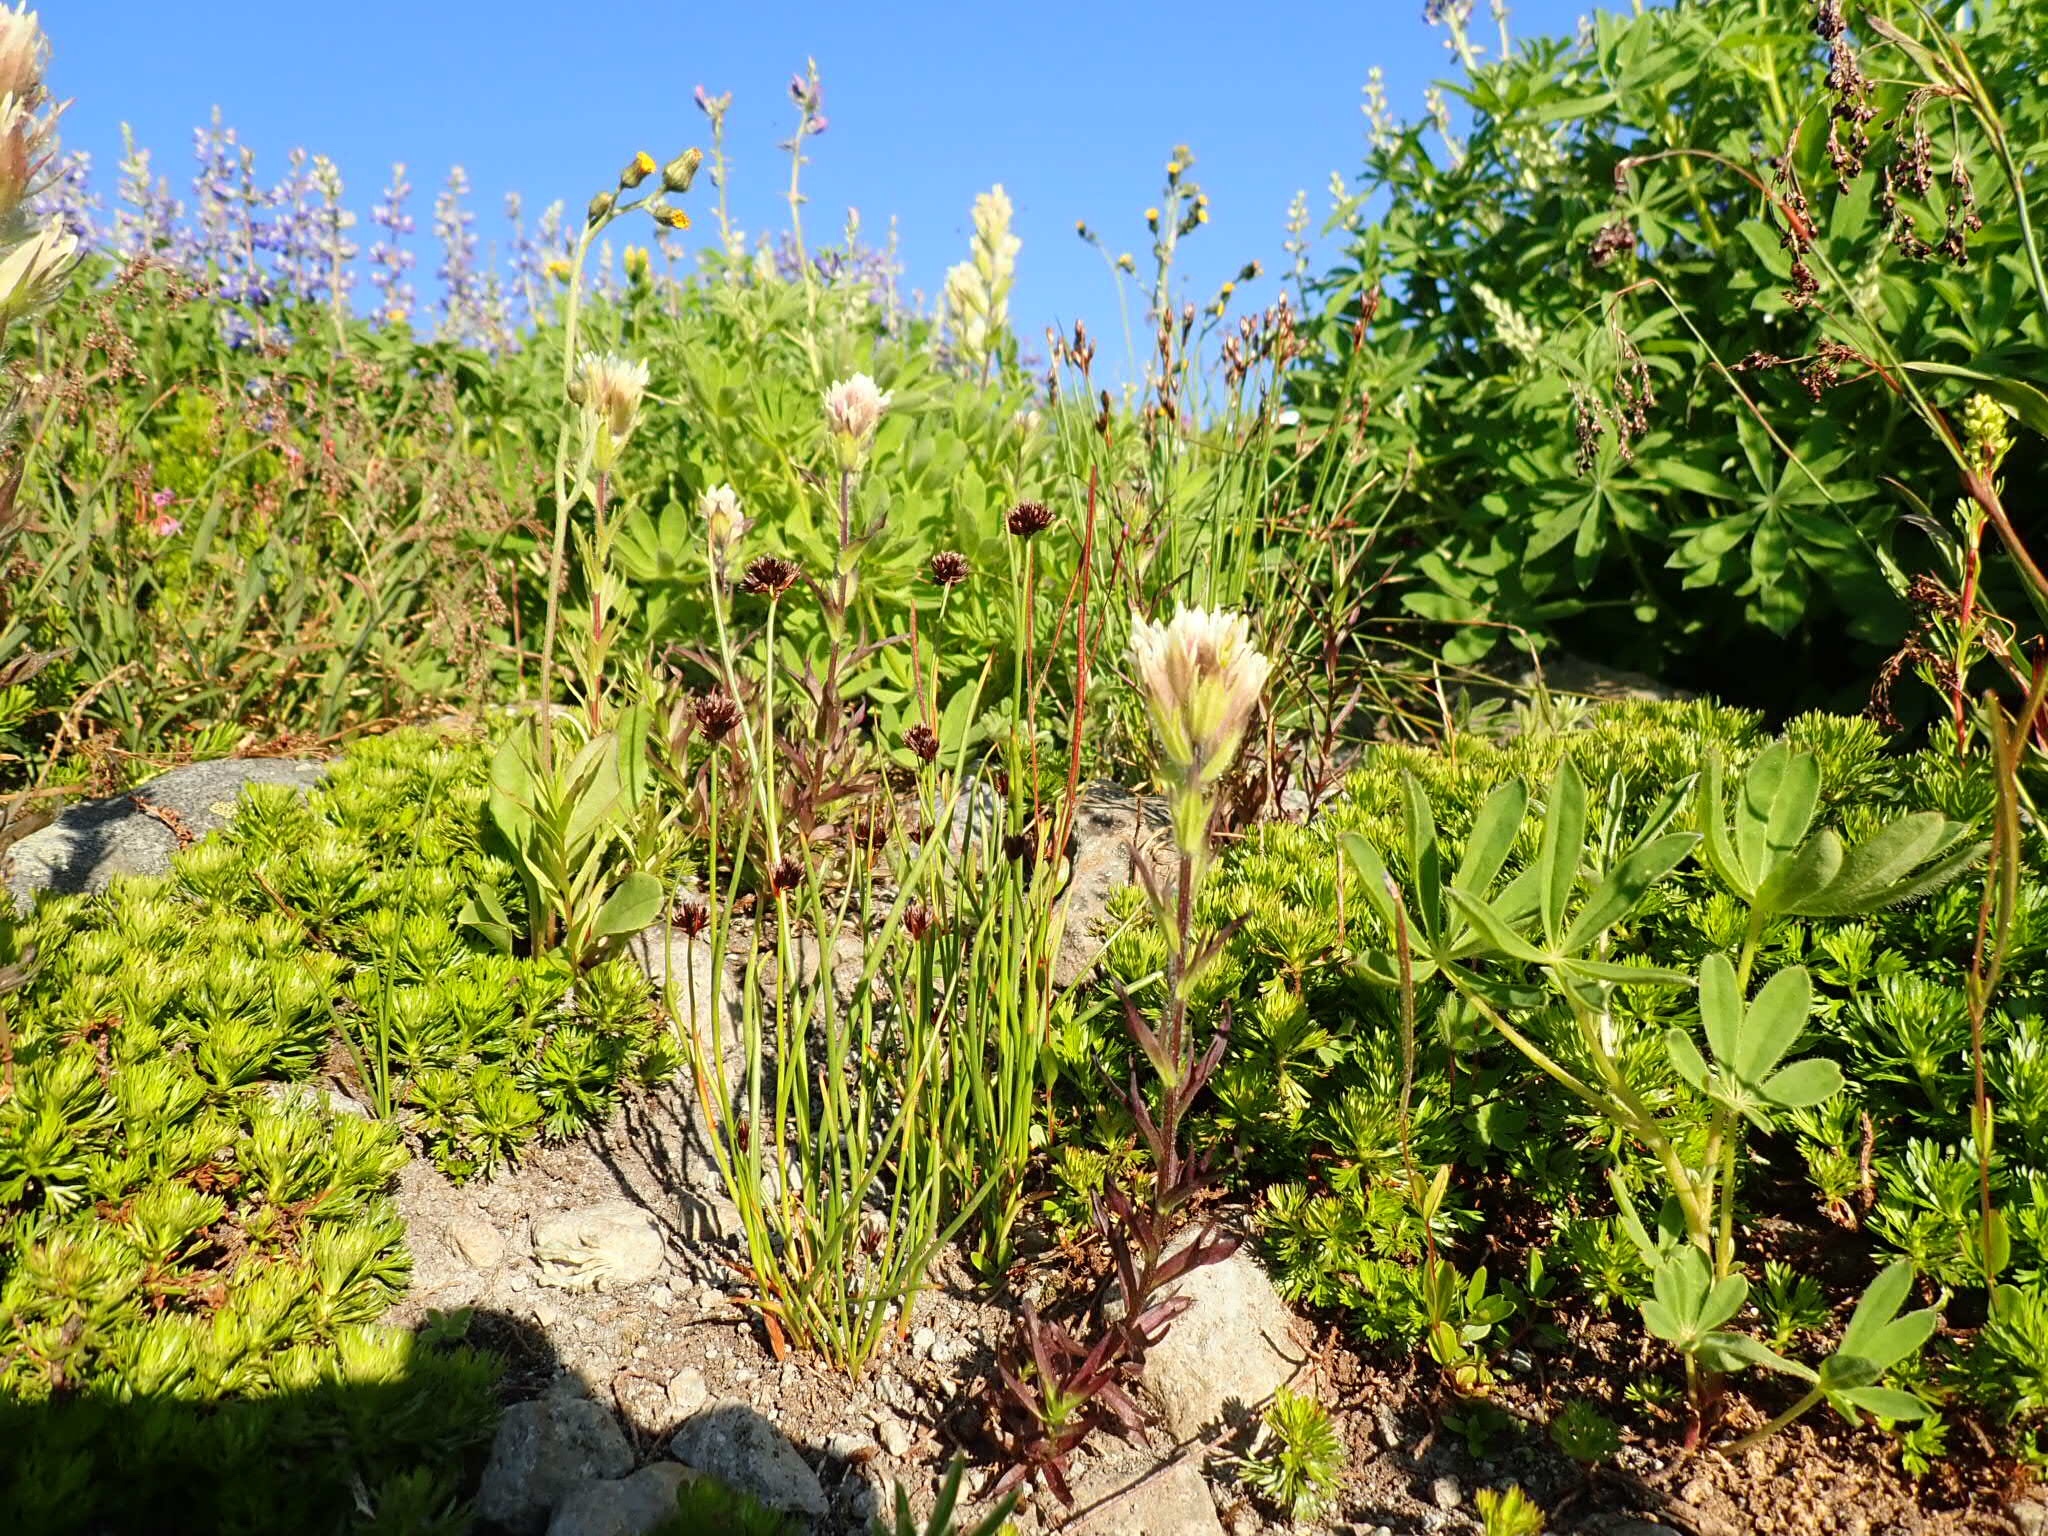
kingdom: Plantae
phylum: Tracheophyta
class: Magnoliopsida
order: Lamiales
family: Orobanchaceae
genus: Castilleja
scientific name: Castilleja parviflora
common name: Mountain paintbrush
